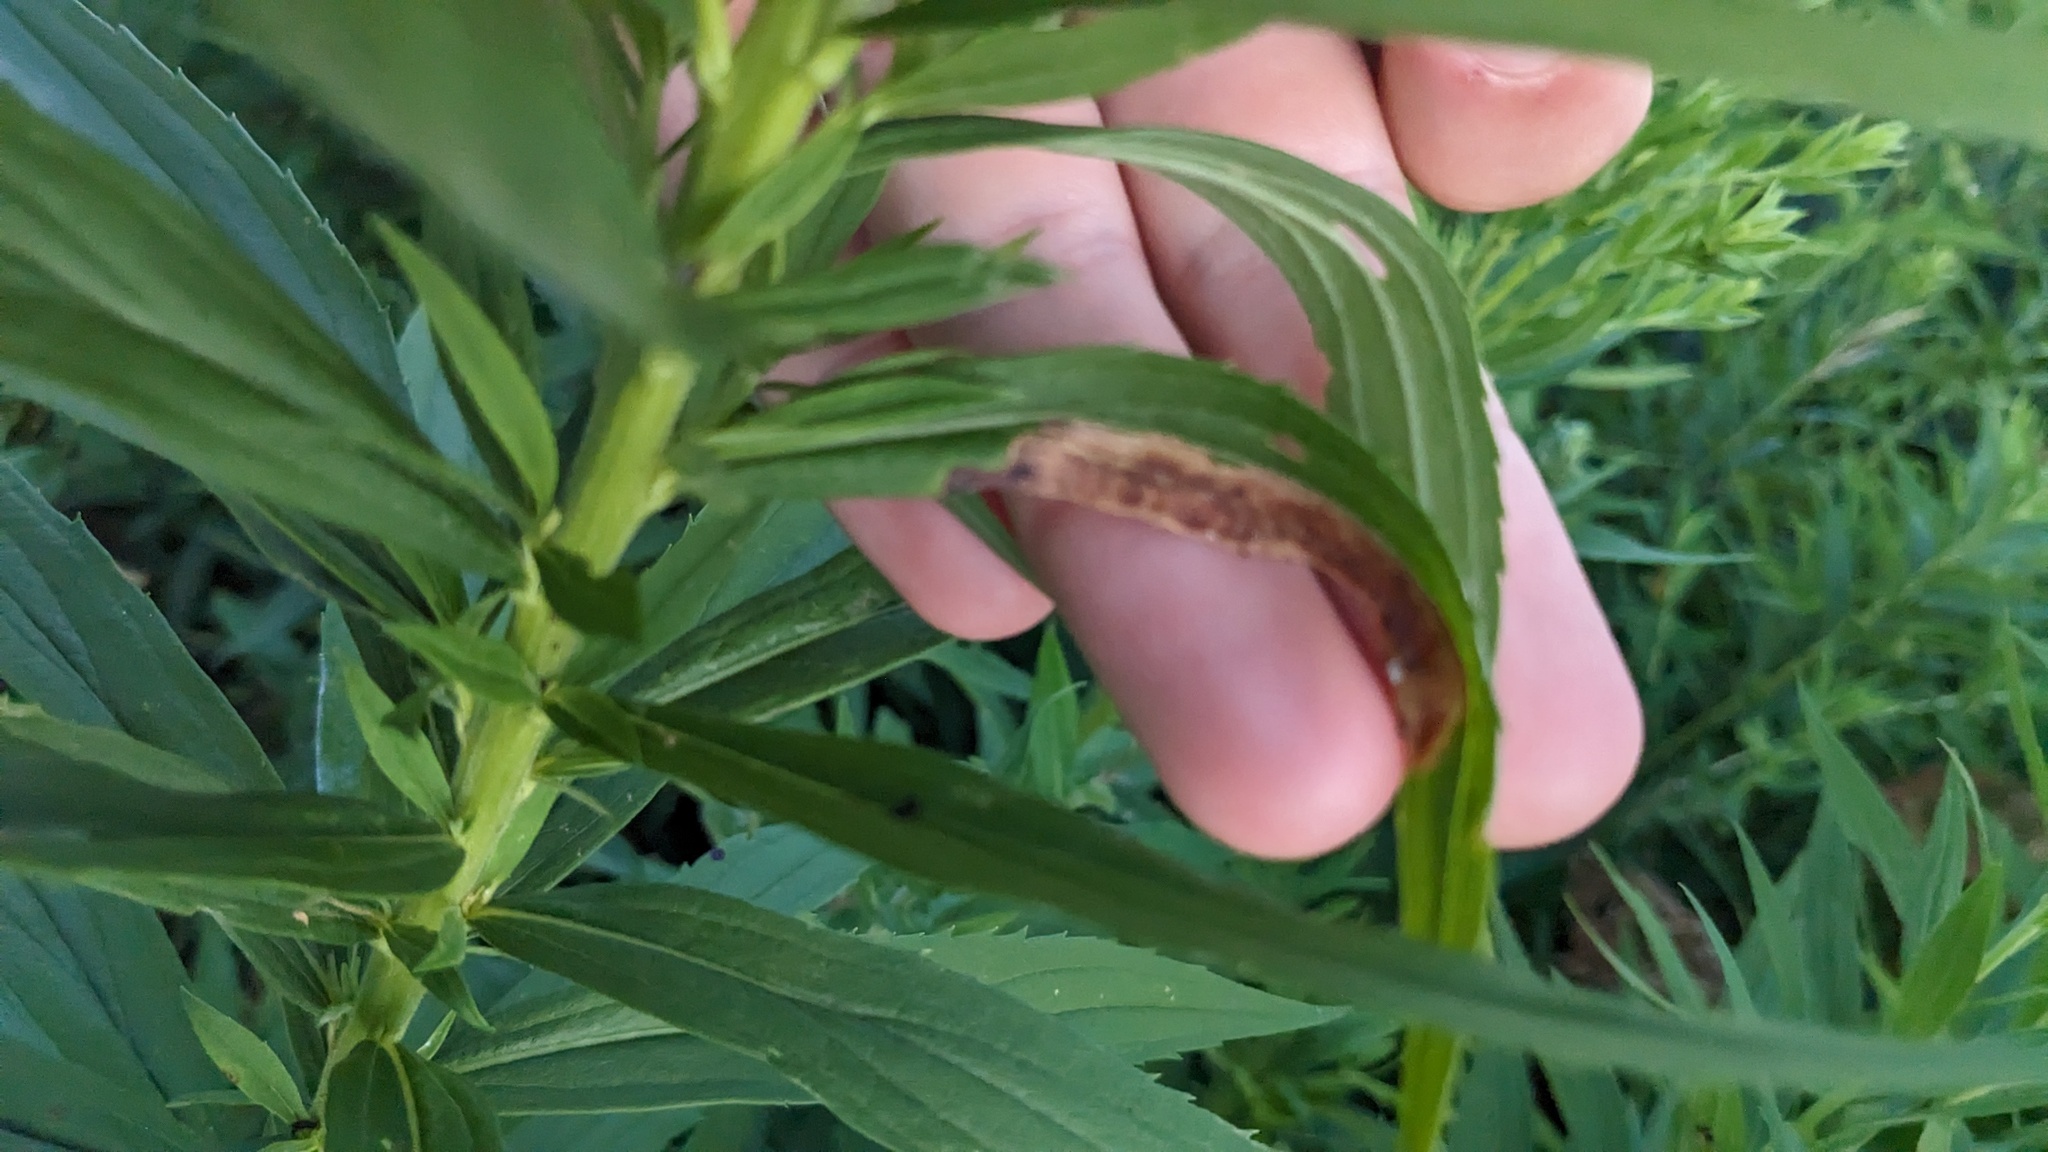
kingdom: Animalia
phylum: Arthropoda
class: Insecta
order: Diptera
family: Agromyzidae
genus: Nemorimyza
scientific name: Nemorimyza posticata
